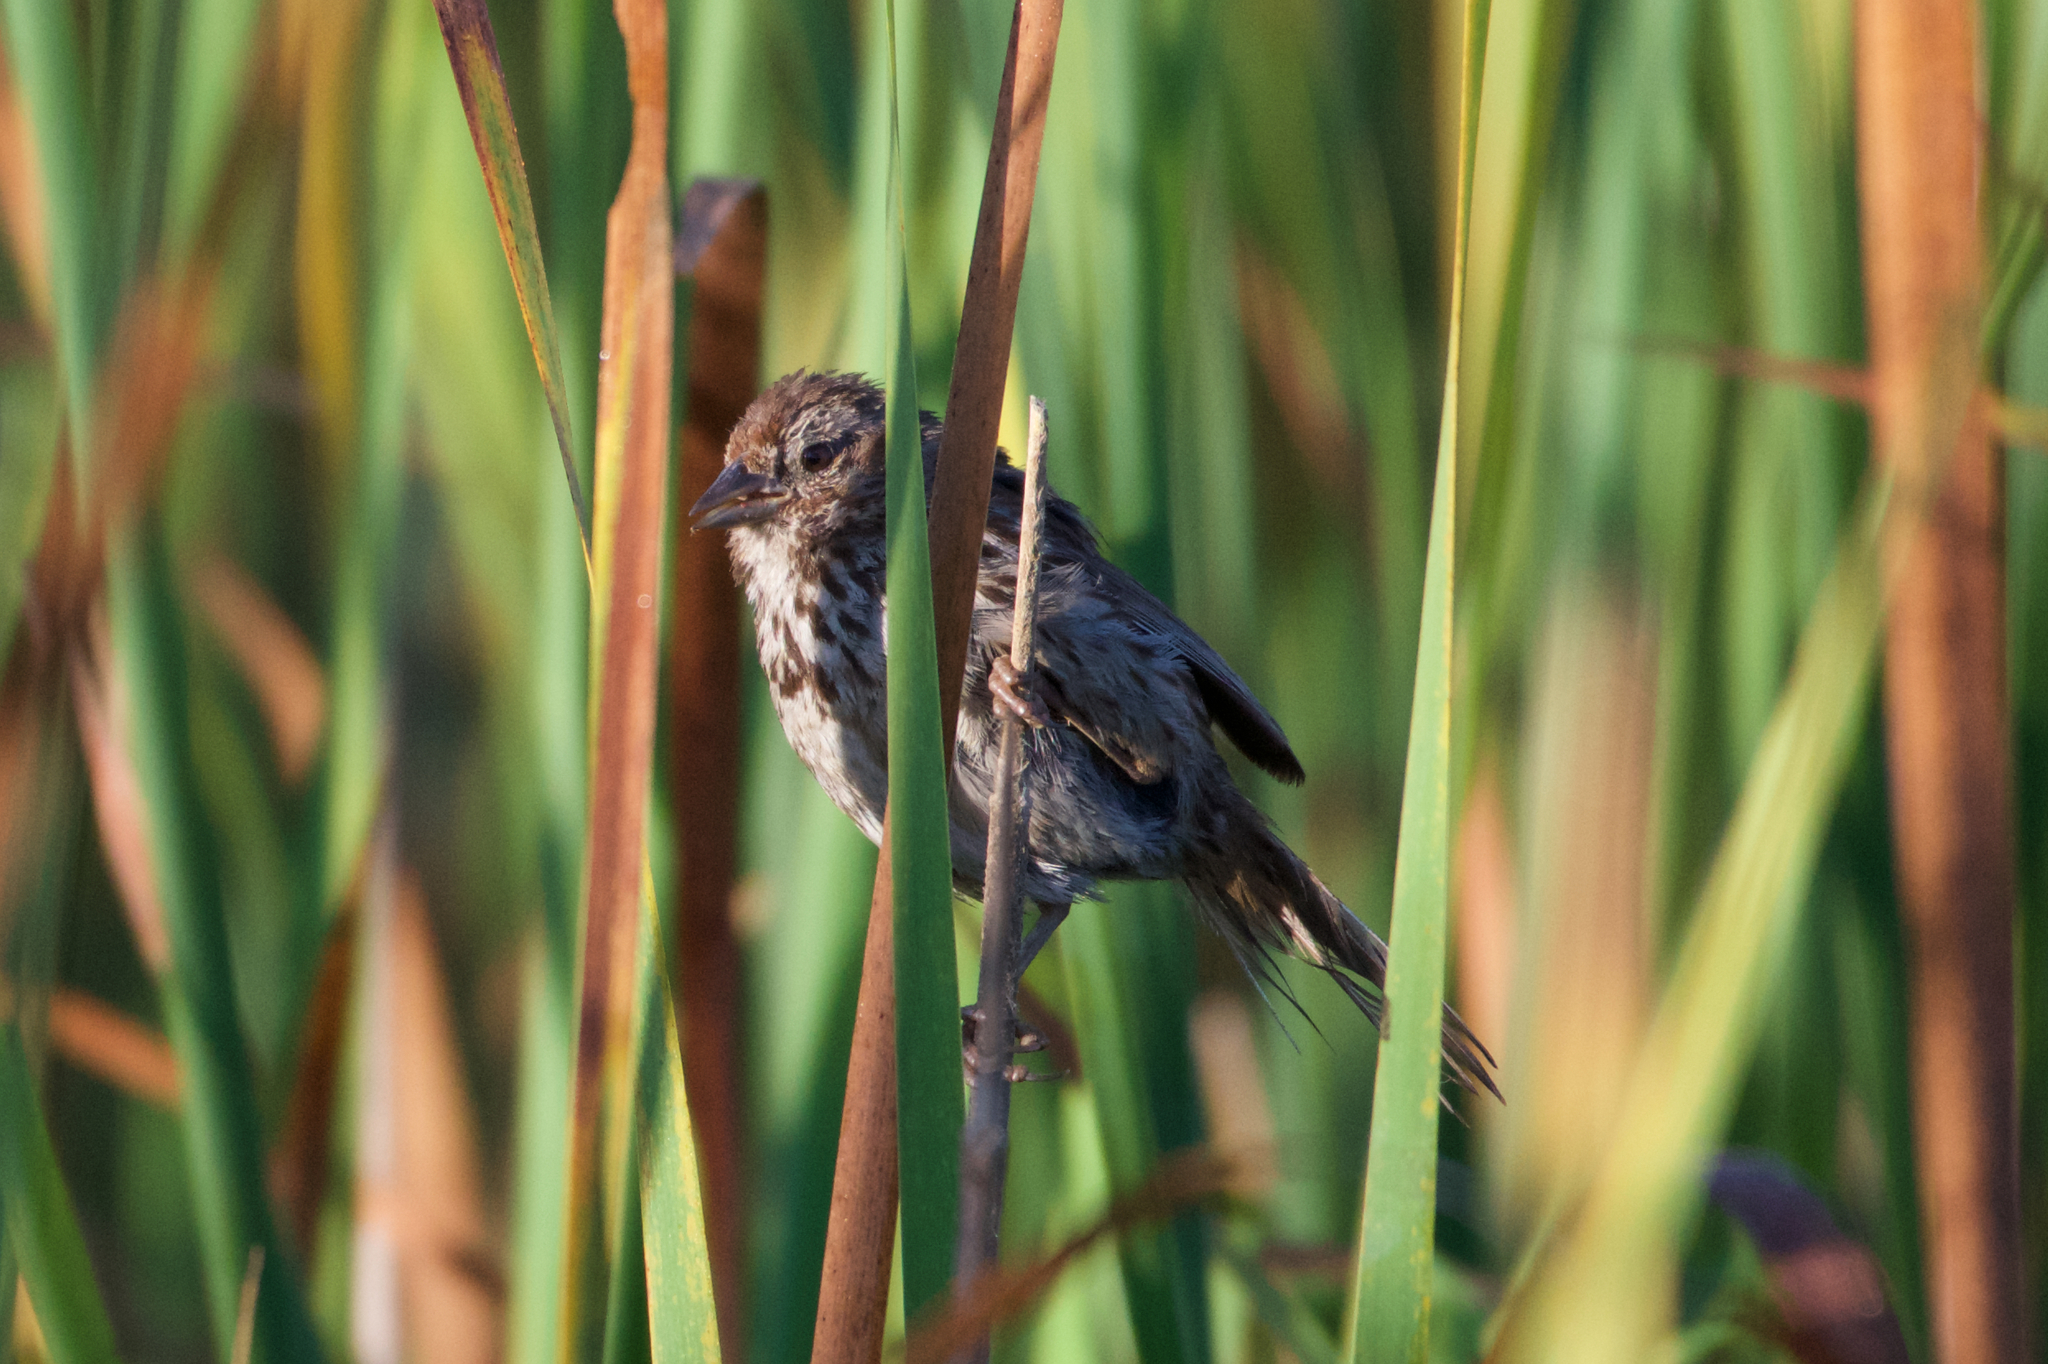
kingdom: Animalia
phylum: Chordata
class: Aves
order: Passeriformes
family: Passerellidae
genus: Melospiza
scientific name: Melospiza melodia
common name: Song sparrow
